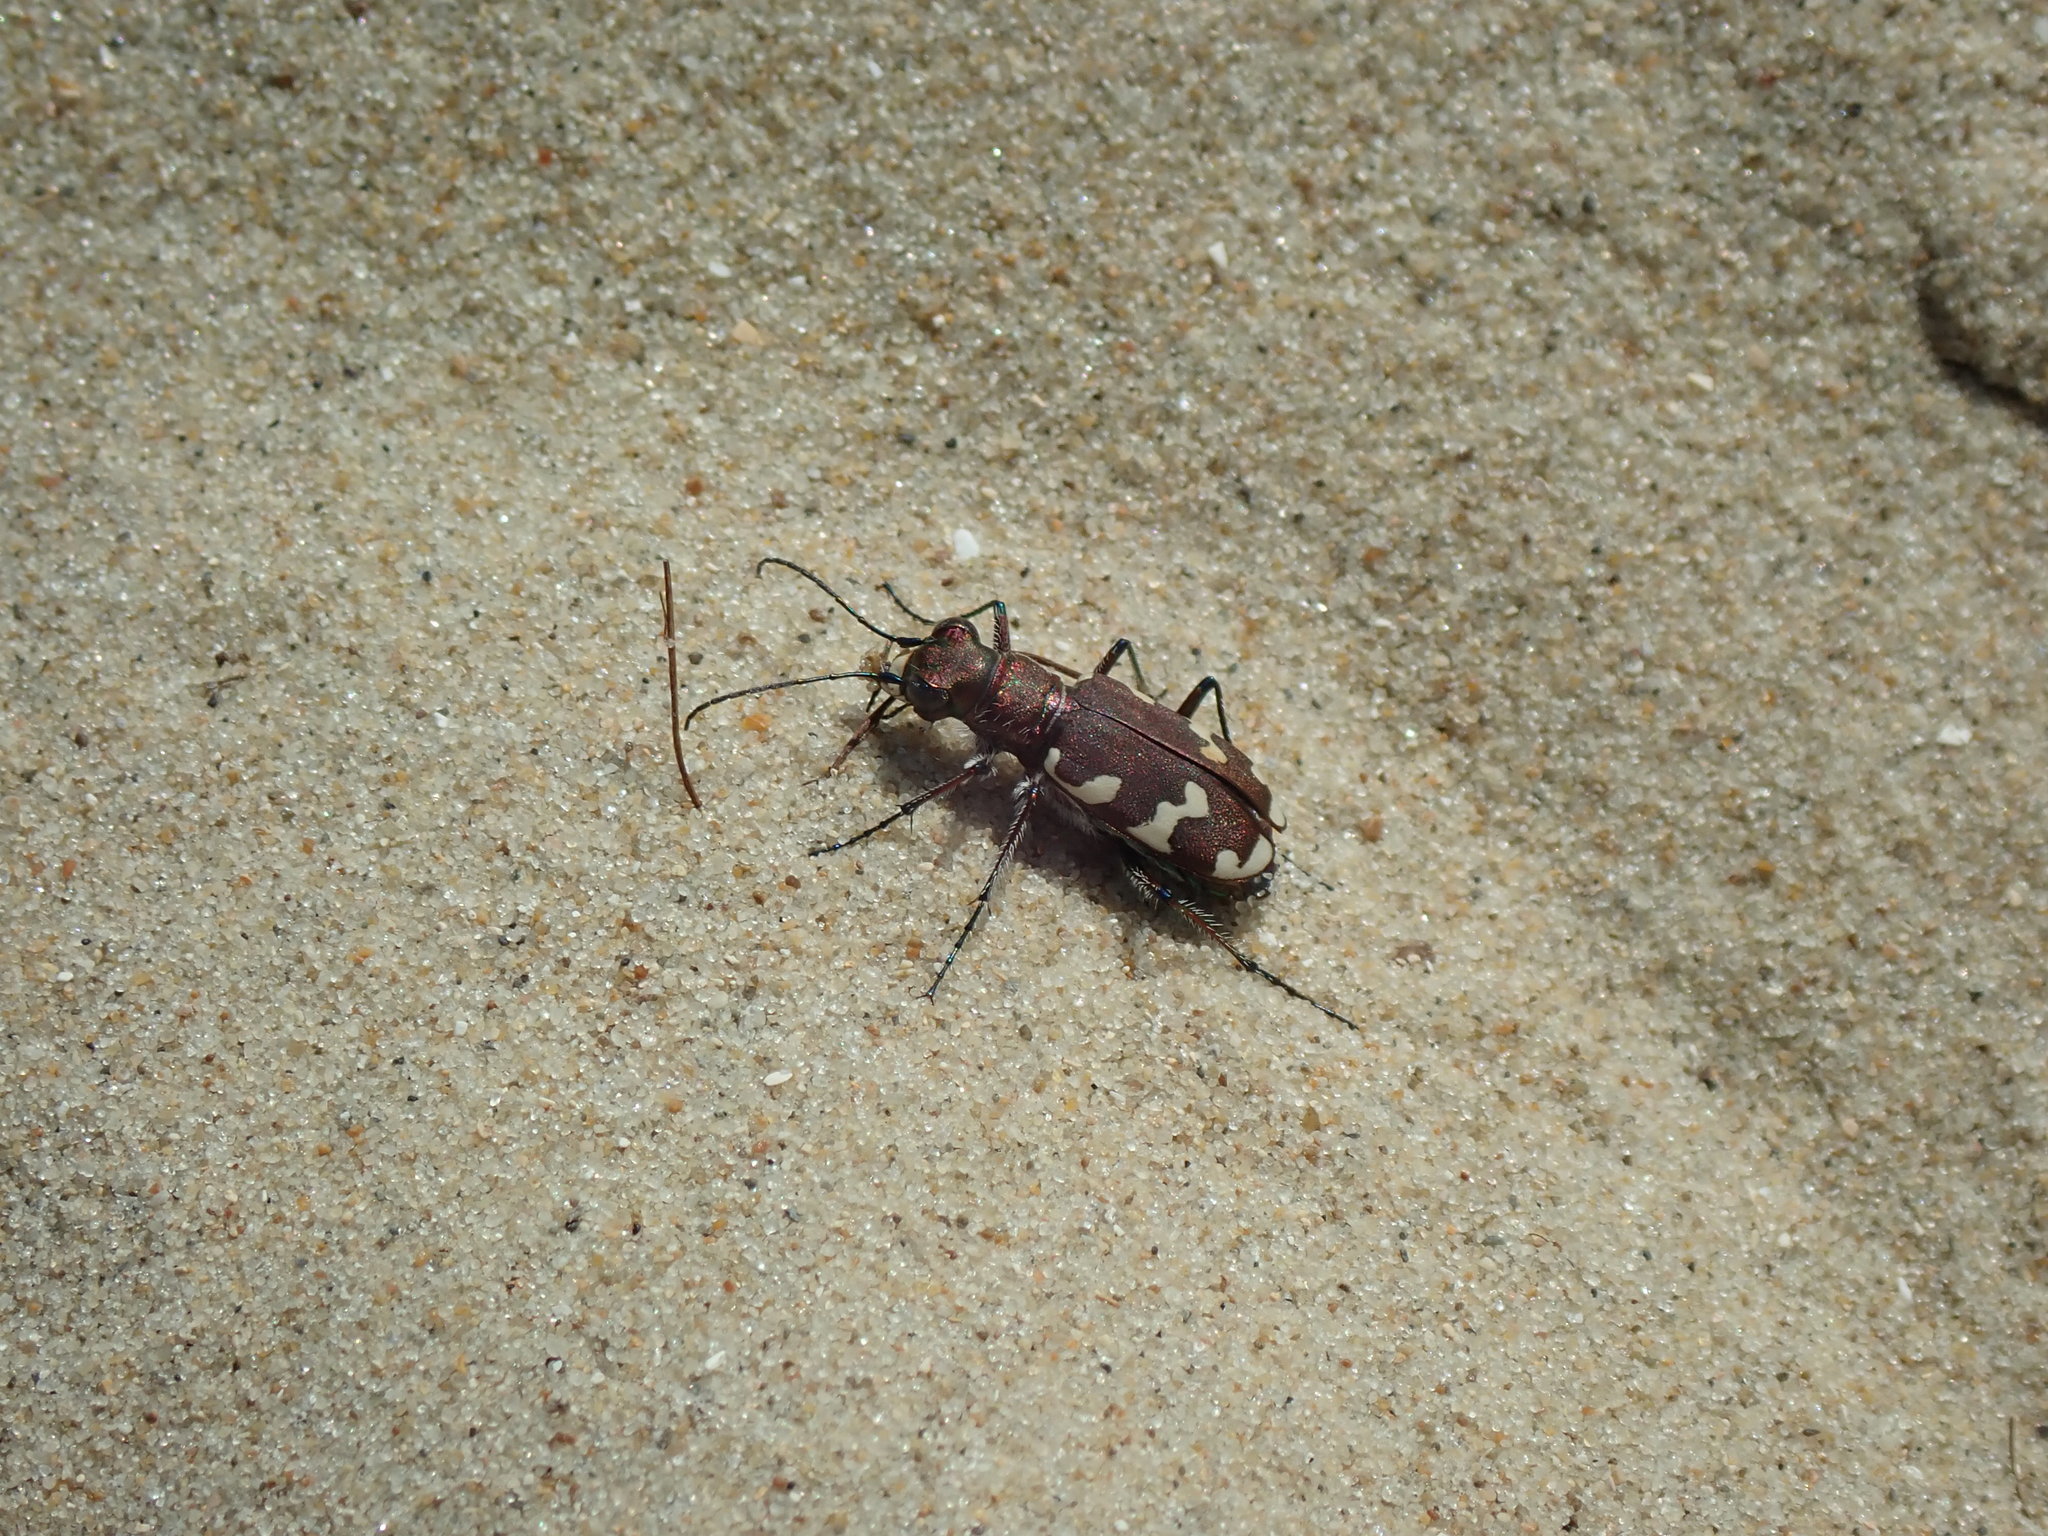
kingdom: Animalia
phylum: Arthropoda
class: Insecta
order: Coleoptera
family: Carabidae
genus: Cicindela
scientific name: Cicindela hybrida
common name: Northern dune tiger beetle
